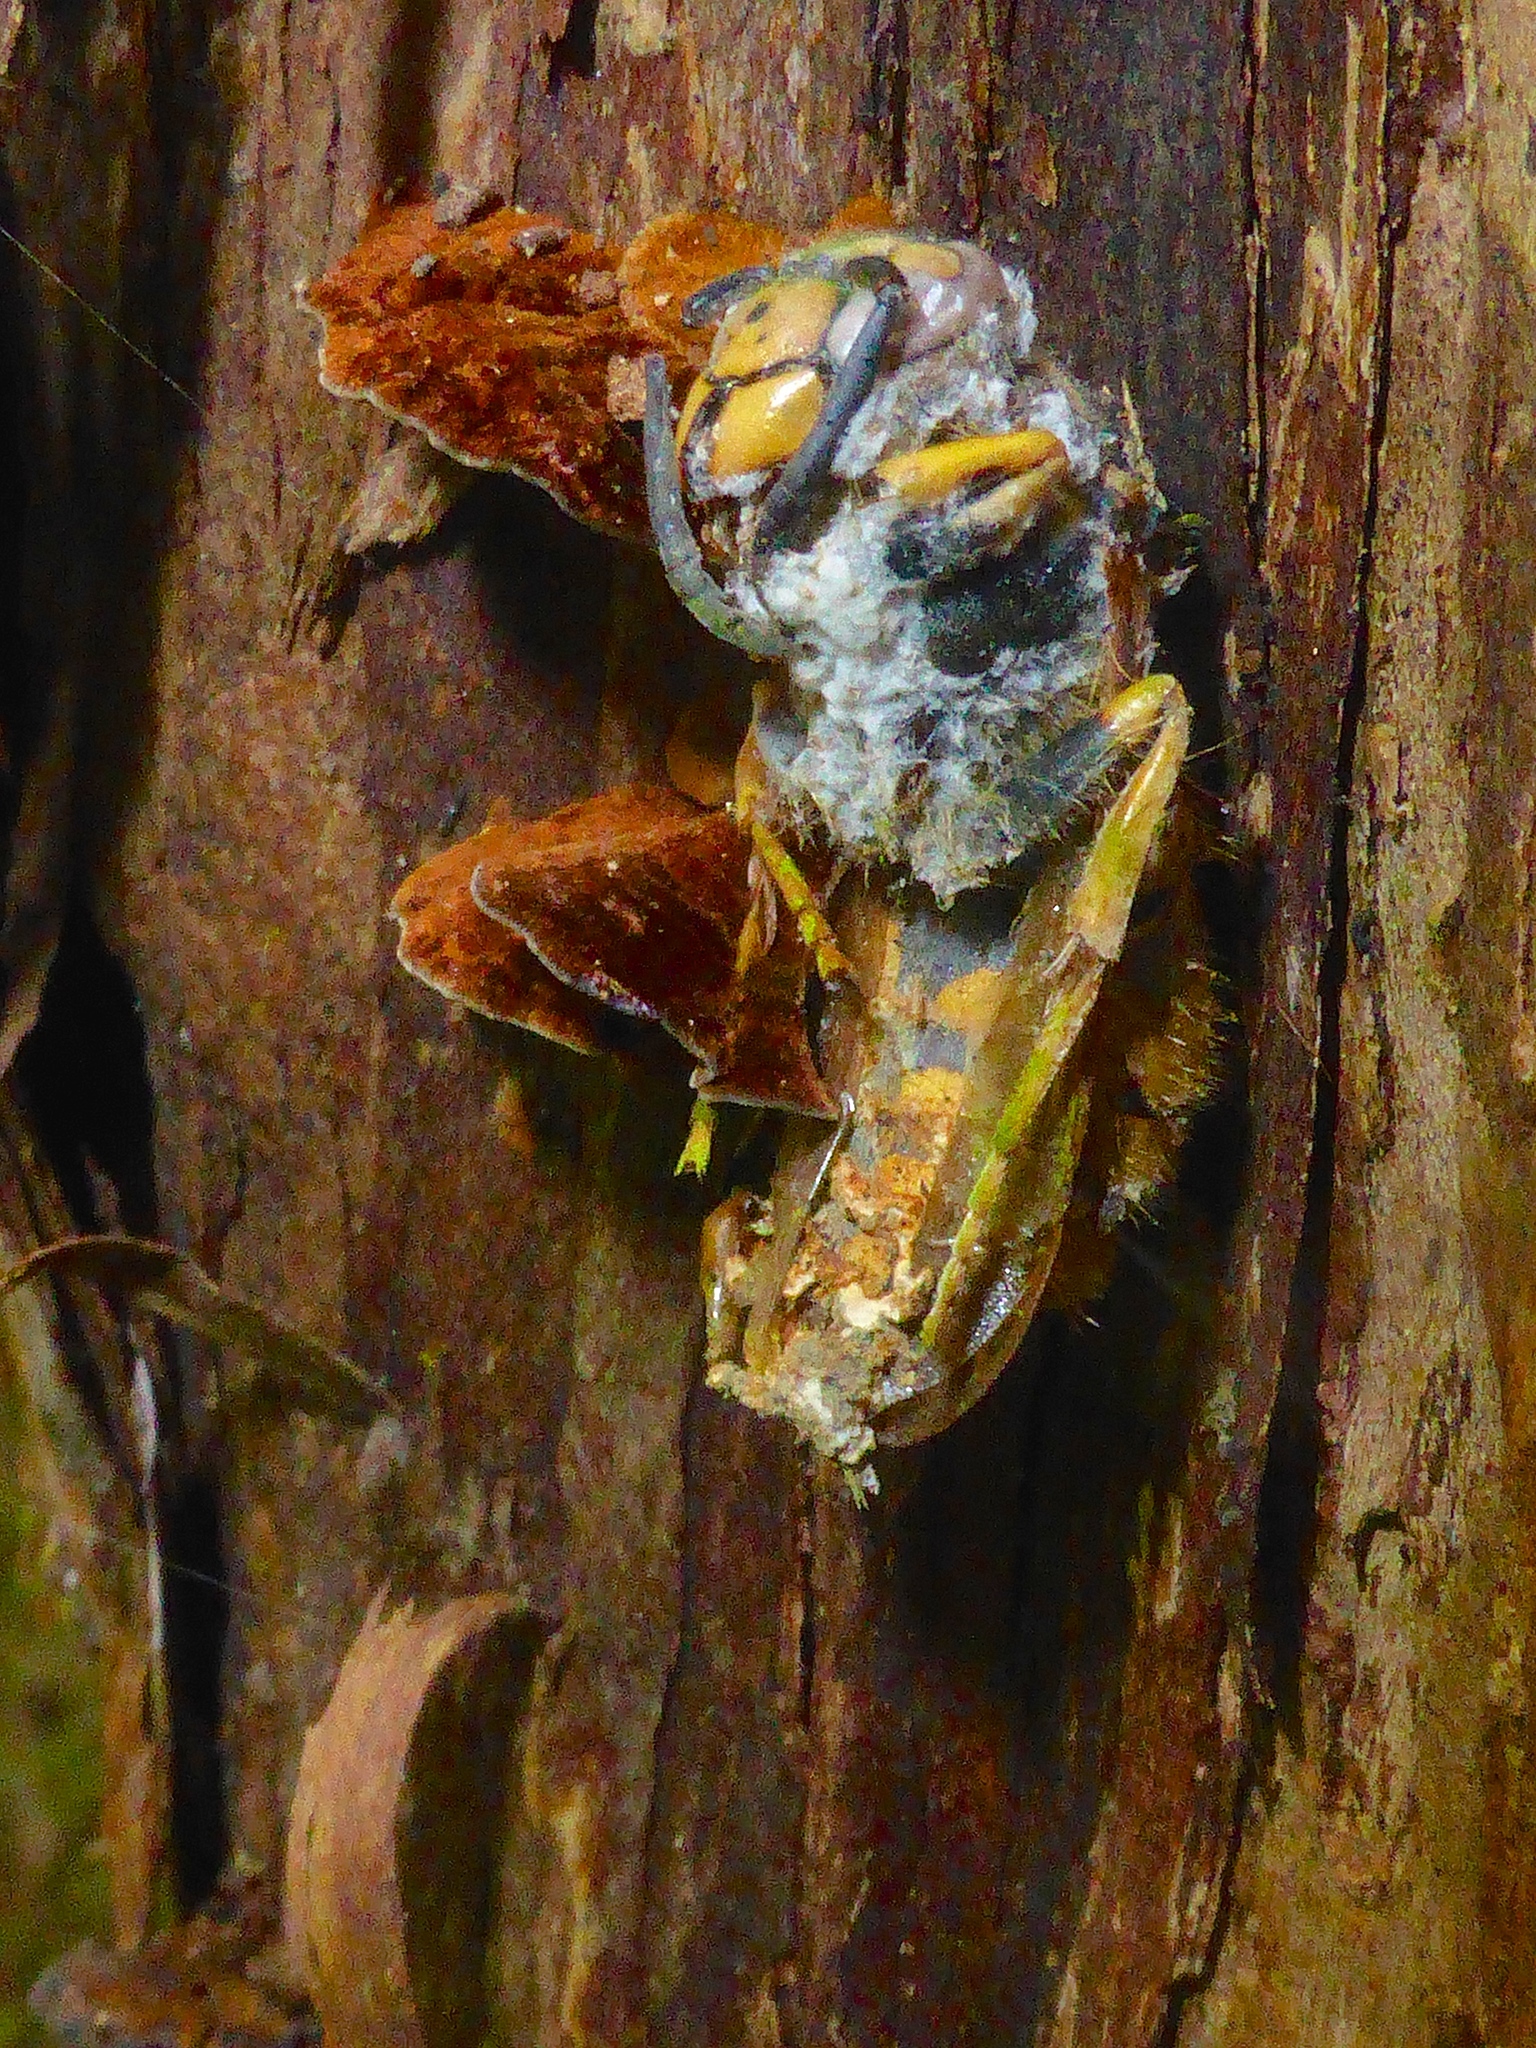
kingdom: Animalia
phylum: Arthropoda
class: Insecta
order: Hymenoptera
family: Vespidae
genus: Vespula
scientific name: Vespula germanica
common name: German wasp
